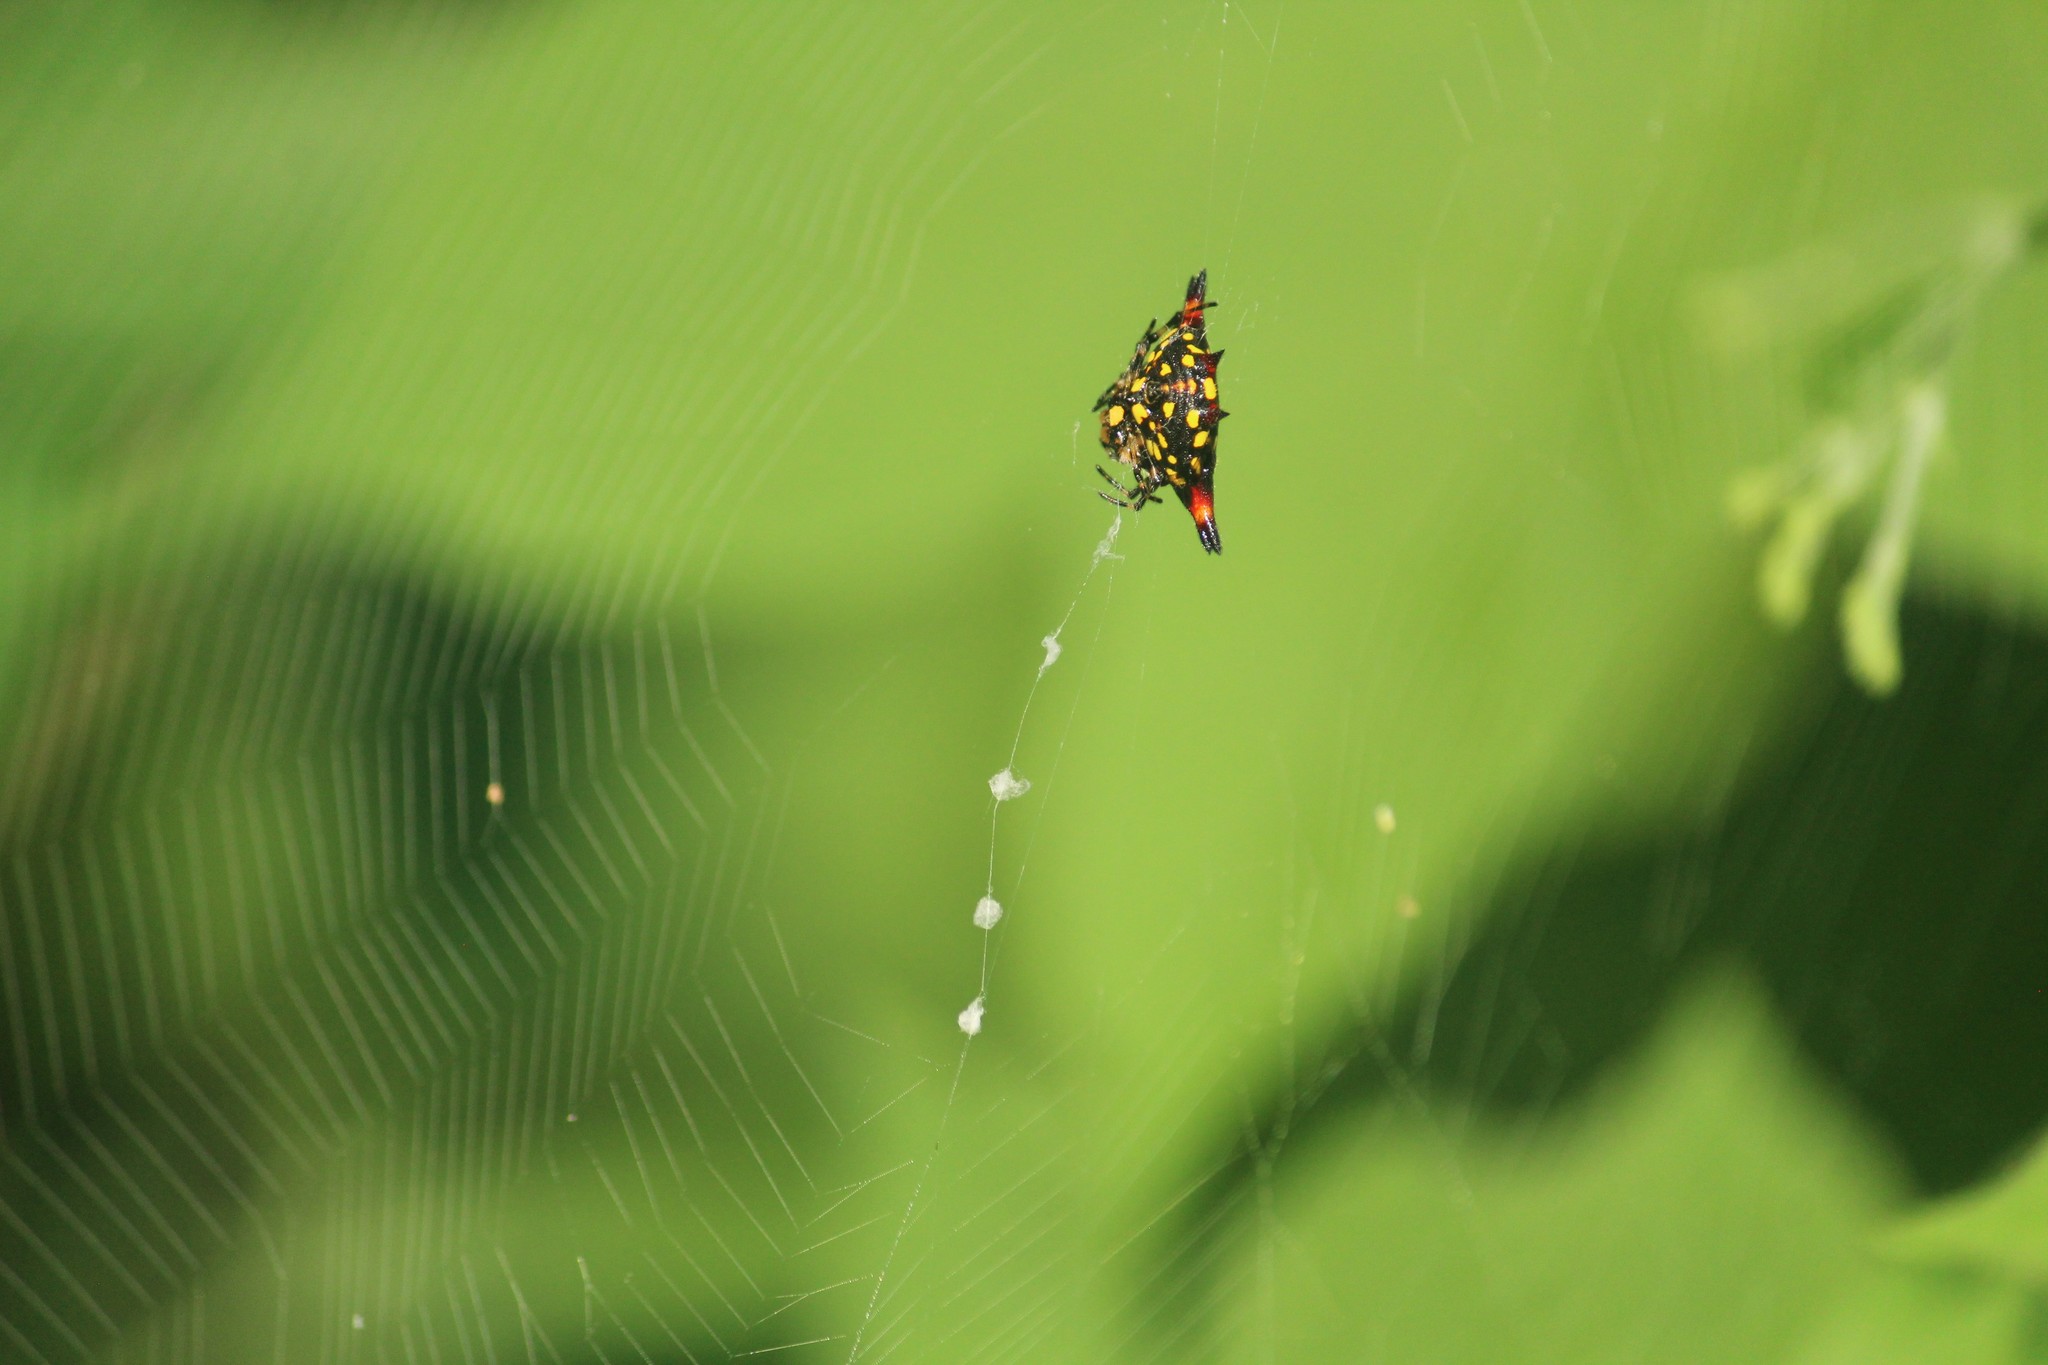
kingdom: Animalia
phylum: Arthropoda
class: Arachnida
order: Araneae
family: Araneidae
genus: Gasteracantha
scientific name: Gasteracantha geminata
